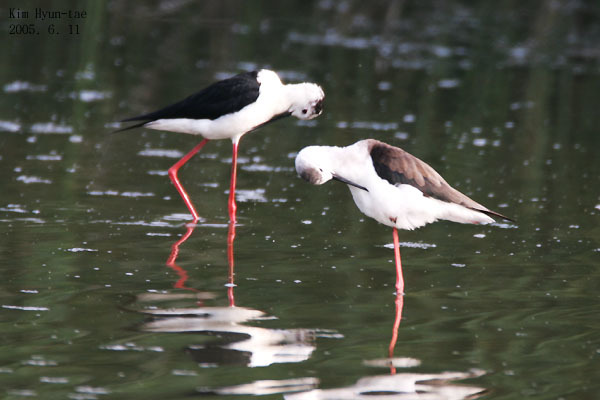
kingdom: Animalia
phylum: Chordata
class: Aves
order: Charadriiformes
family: Recurvirostridae
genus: Himantopus
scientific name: Himantopus himantopus
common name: Black-winged stilt
